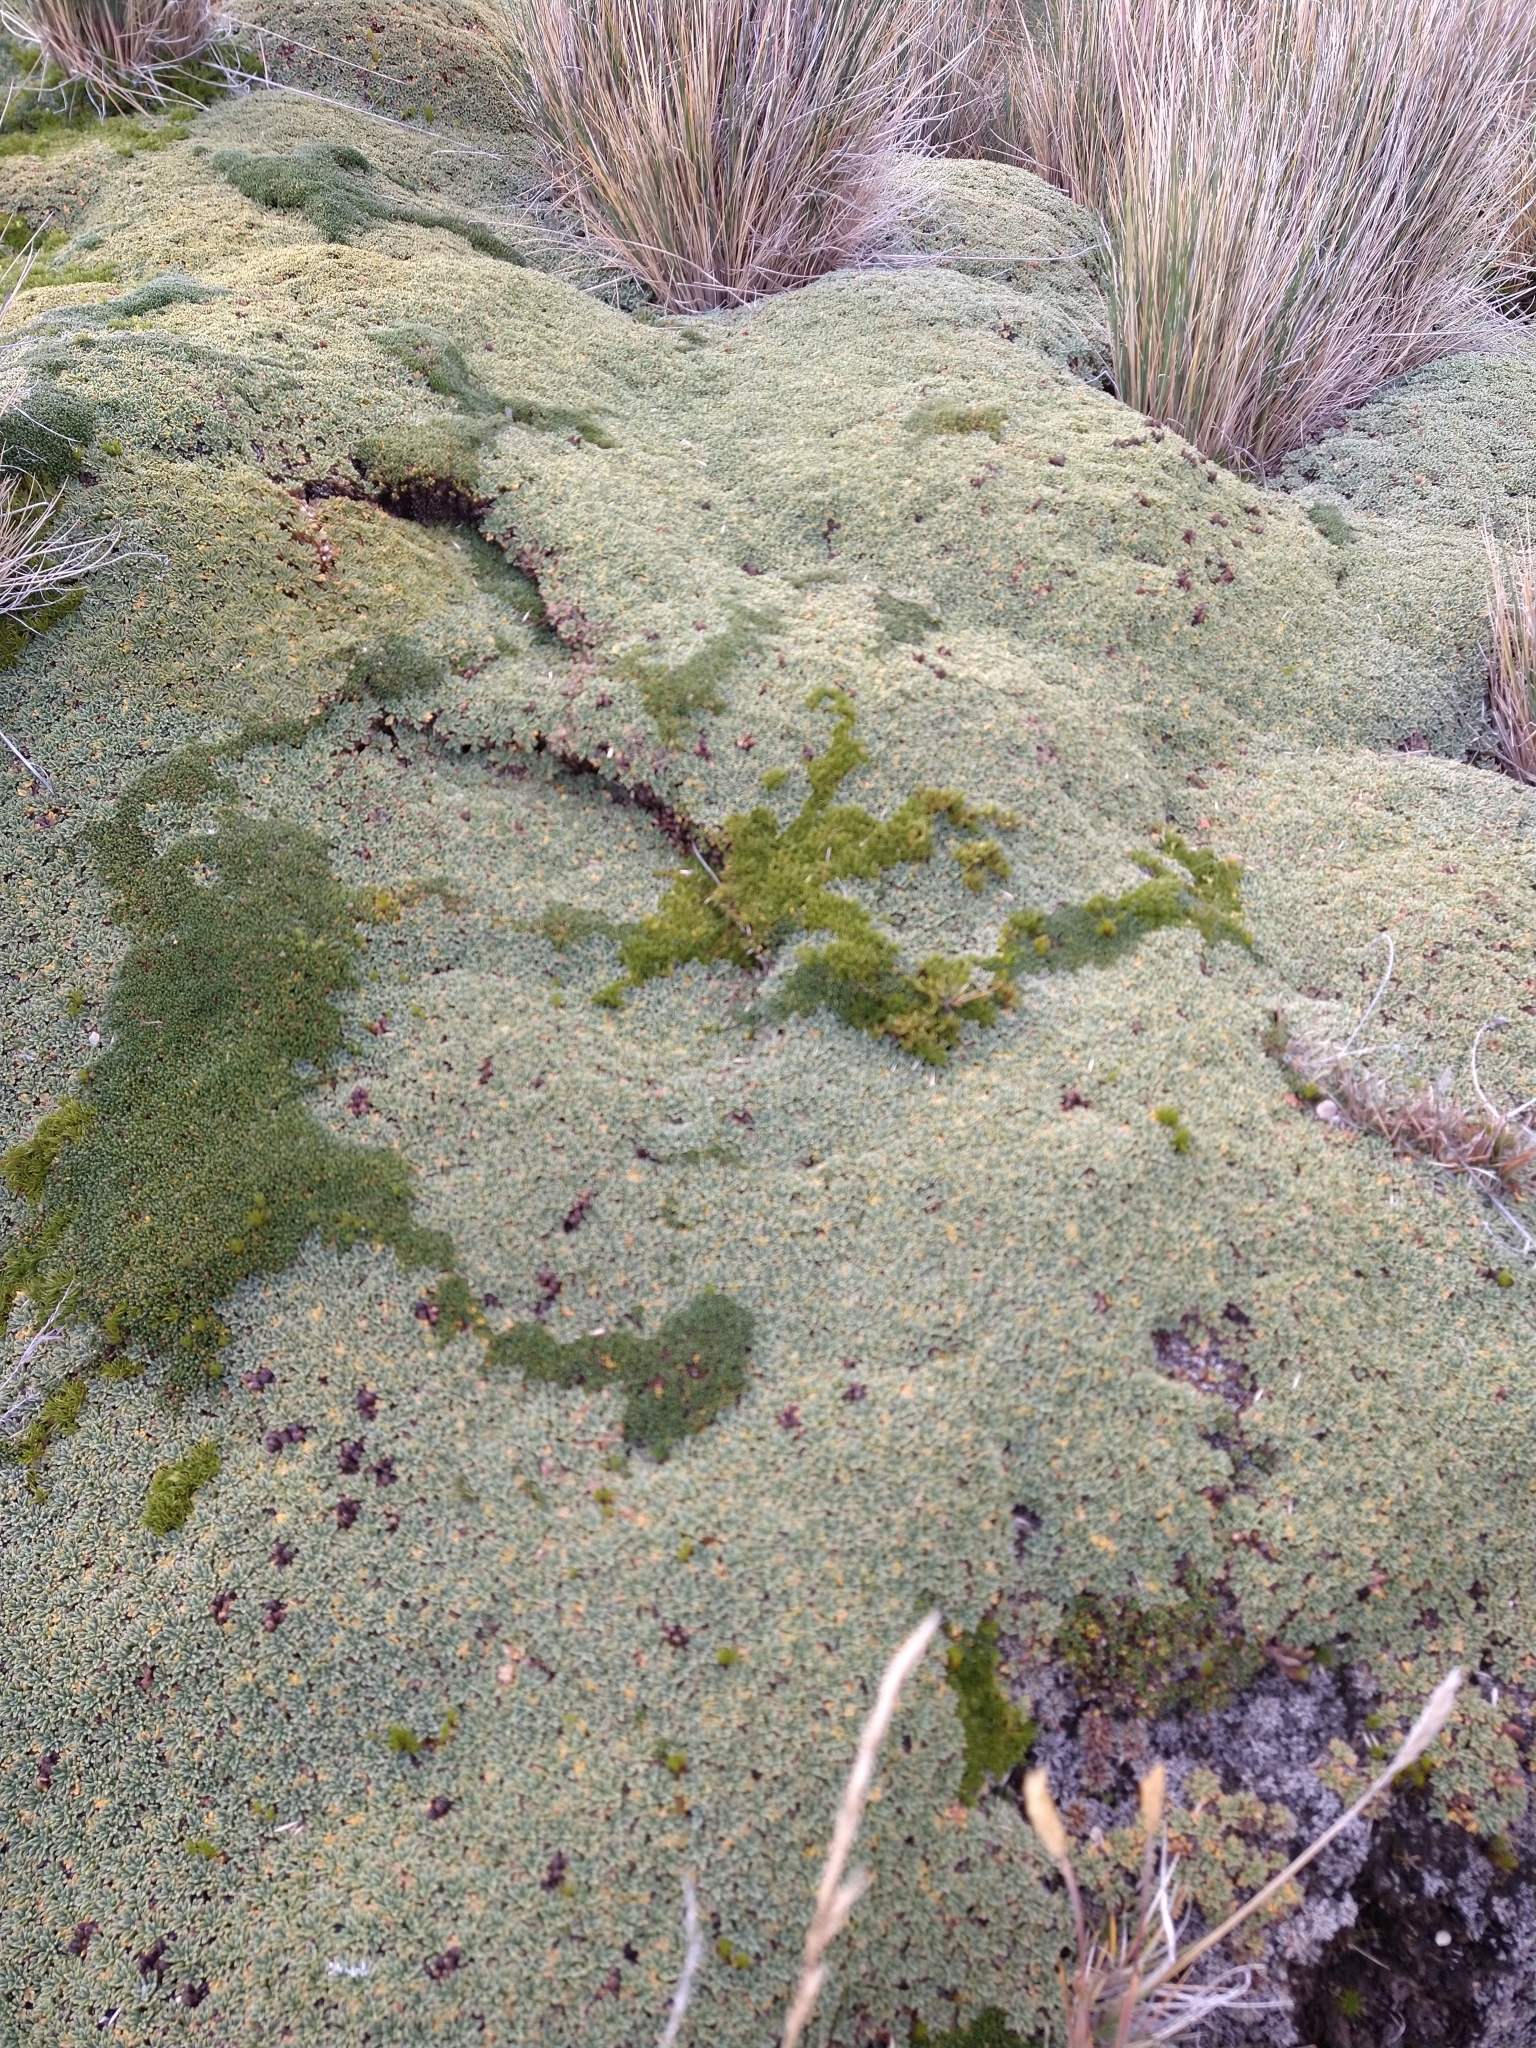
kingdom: Plantae
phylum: Tracheophyta
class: Magnoliopsida
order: Apiales
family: Apiaceae
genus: Bolax
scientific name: Bolax gummifera
